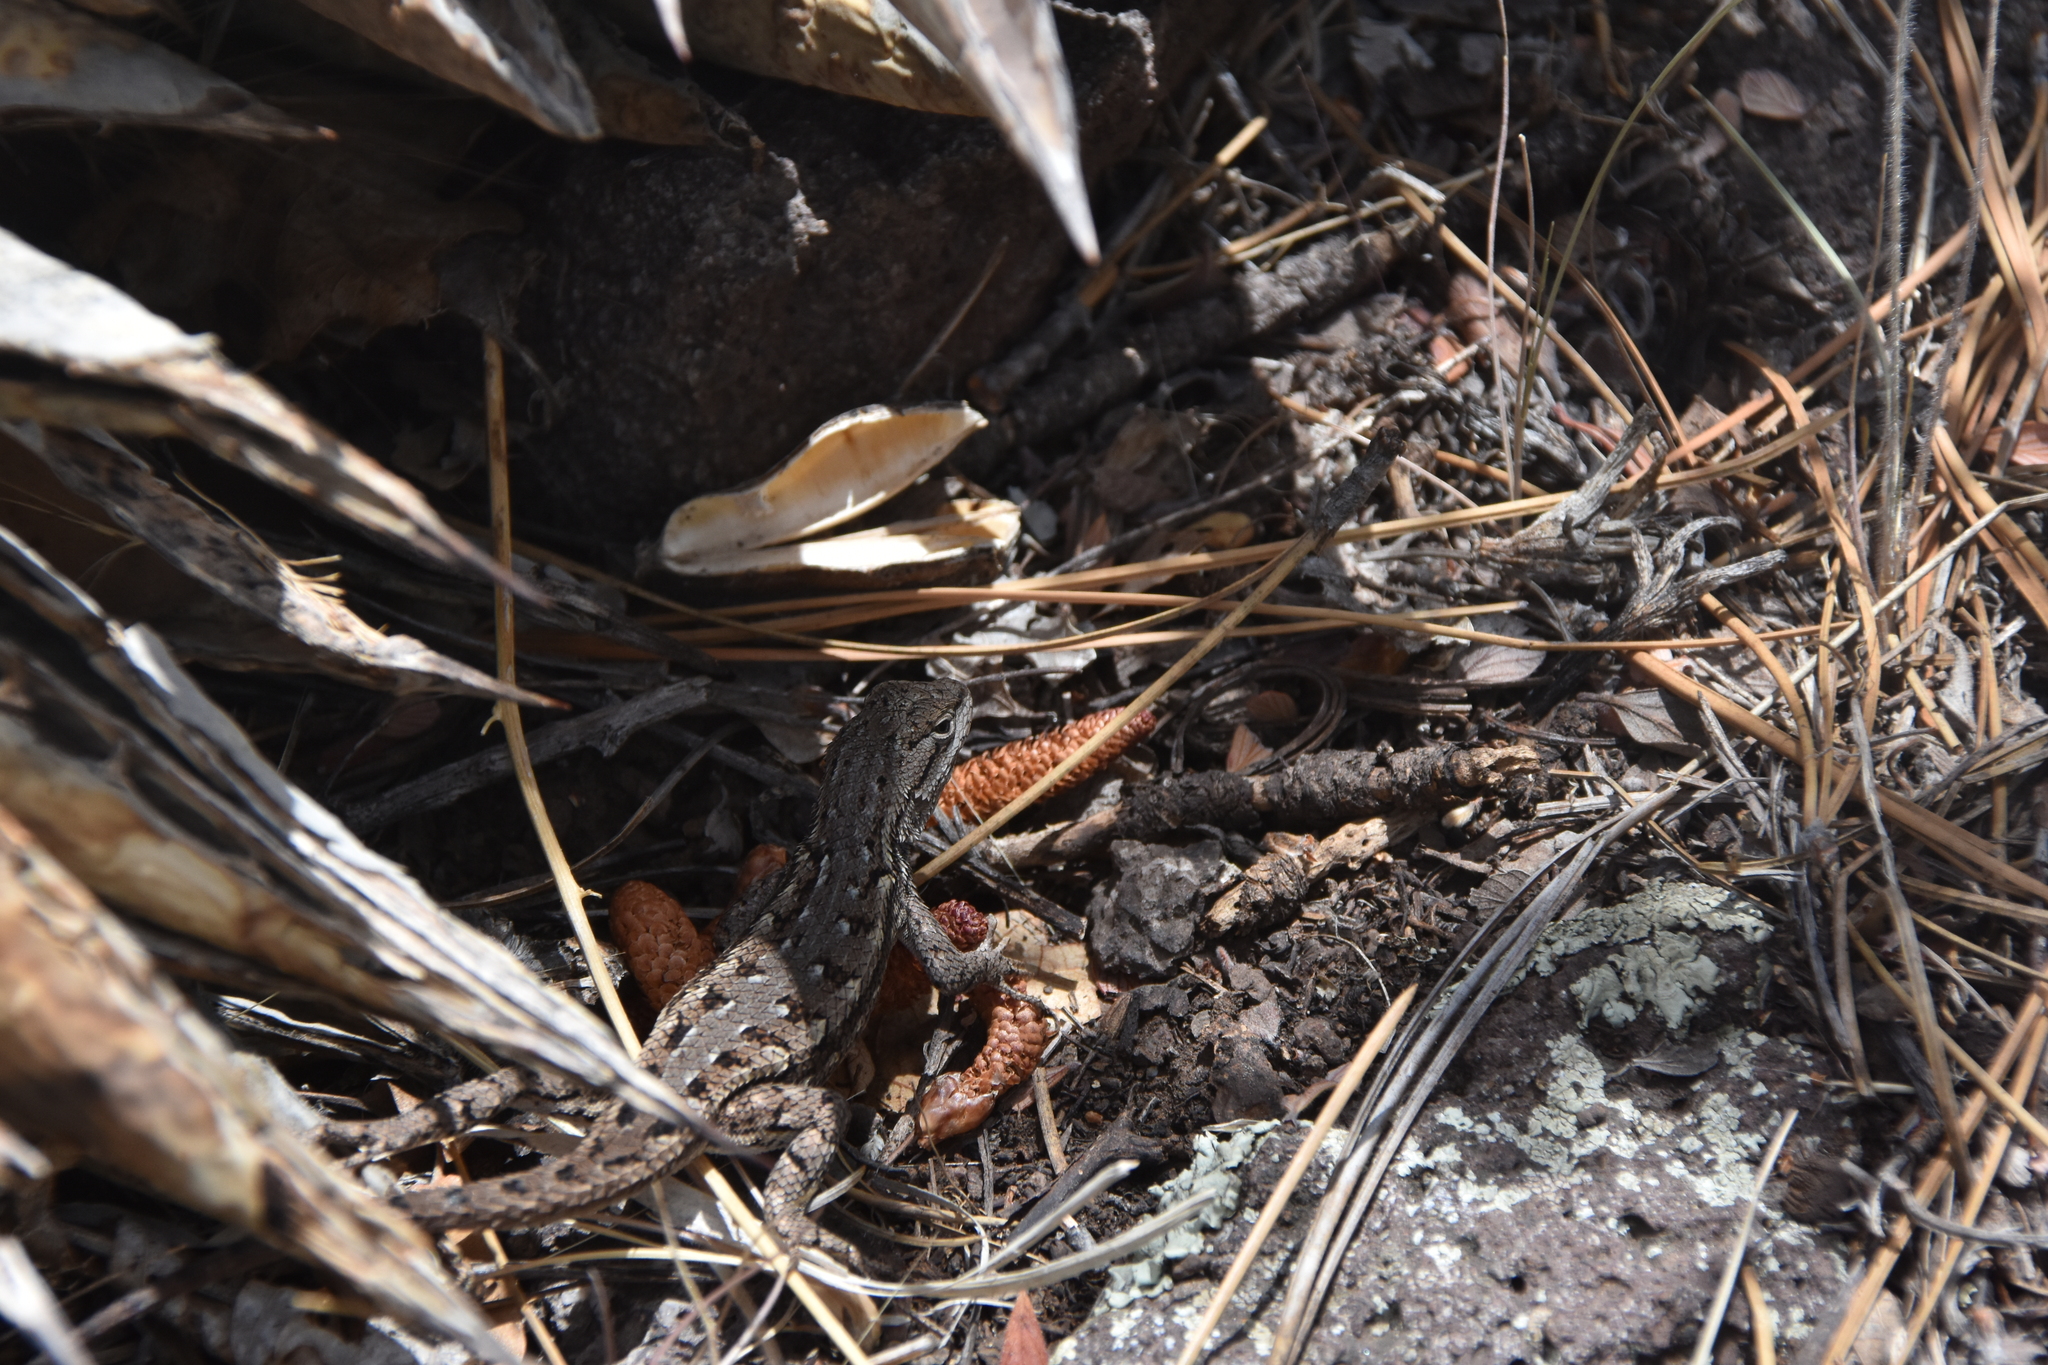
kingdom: Animalia
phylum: Chordata
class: Squamata
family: Phrynosomatidae
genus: Sceloporus
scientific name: Sceloporus tristichus
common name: Plateau fence lizard
